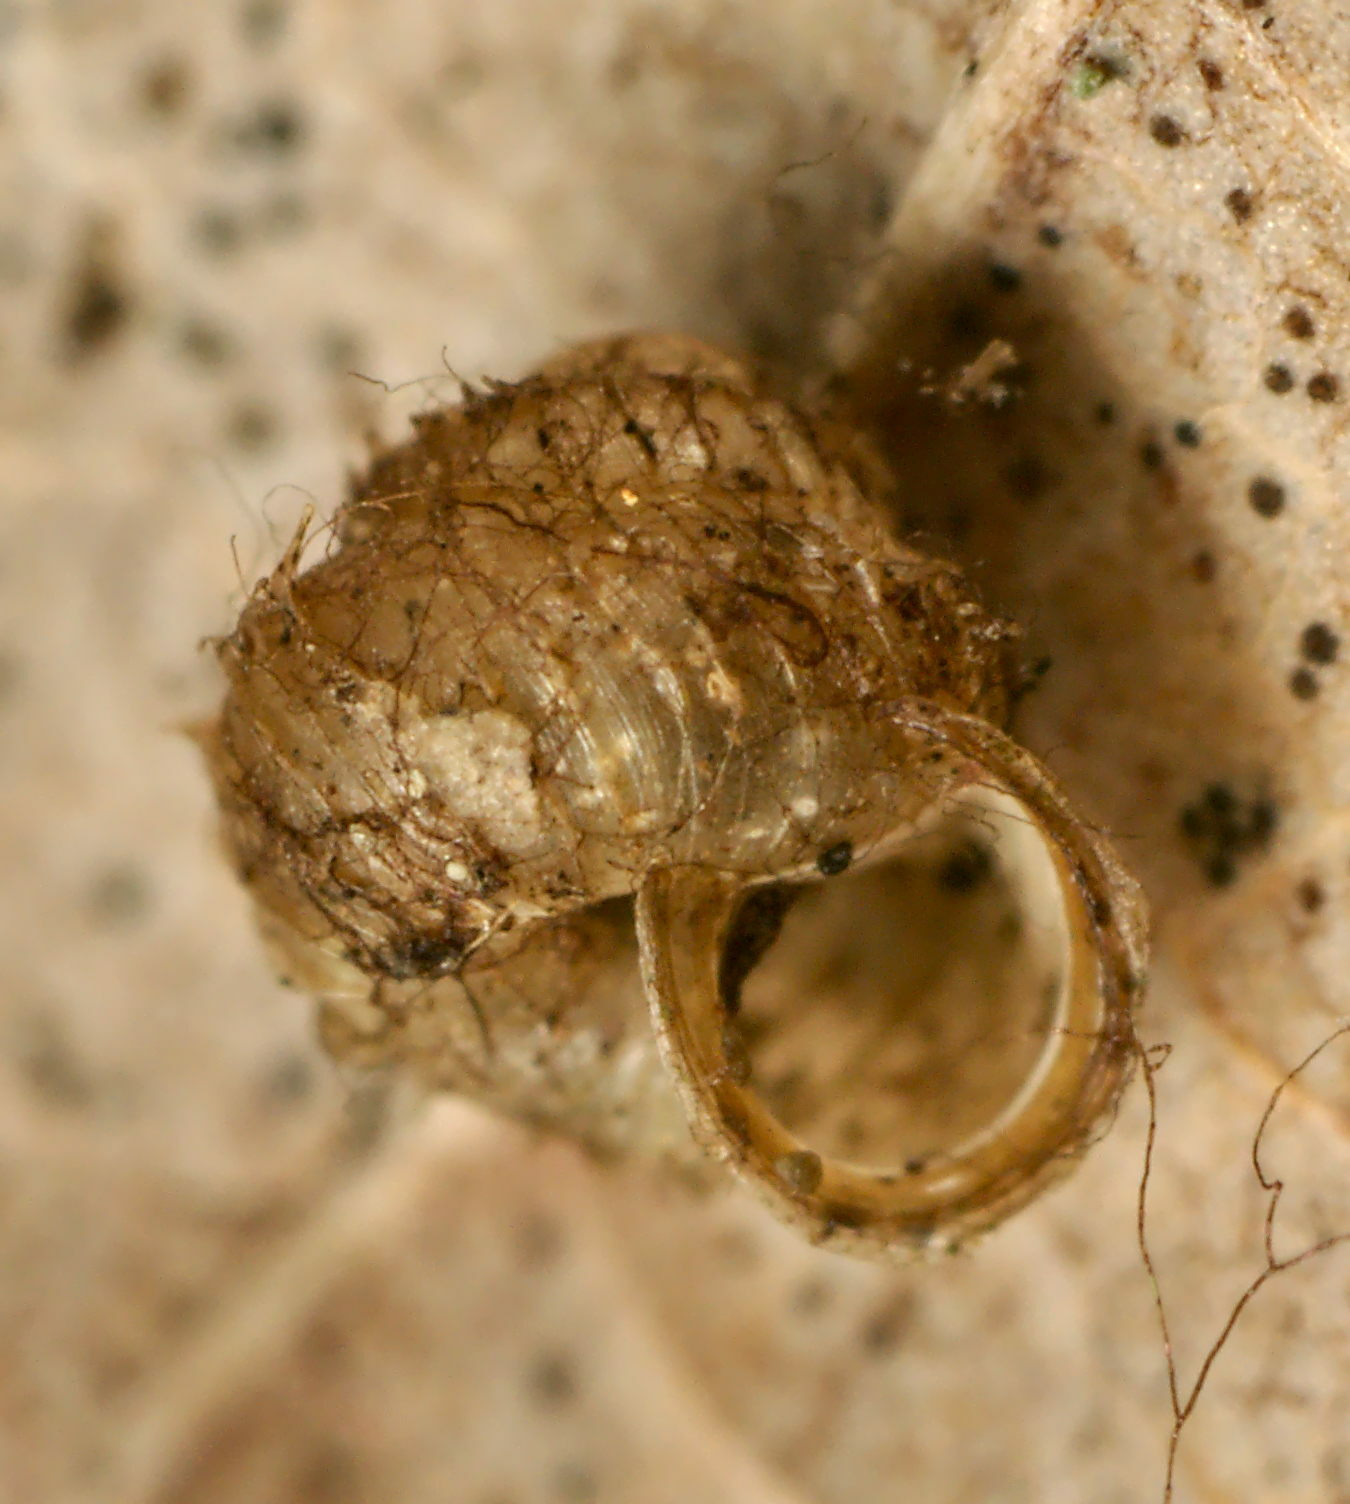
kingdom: Animalia
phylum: Mollusca
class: Gastropoda
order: Stylommatophora
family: Valloniidae
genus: Acanthinula
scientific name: Acanthinula aculeata
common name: Prickly snail
